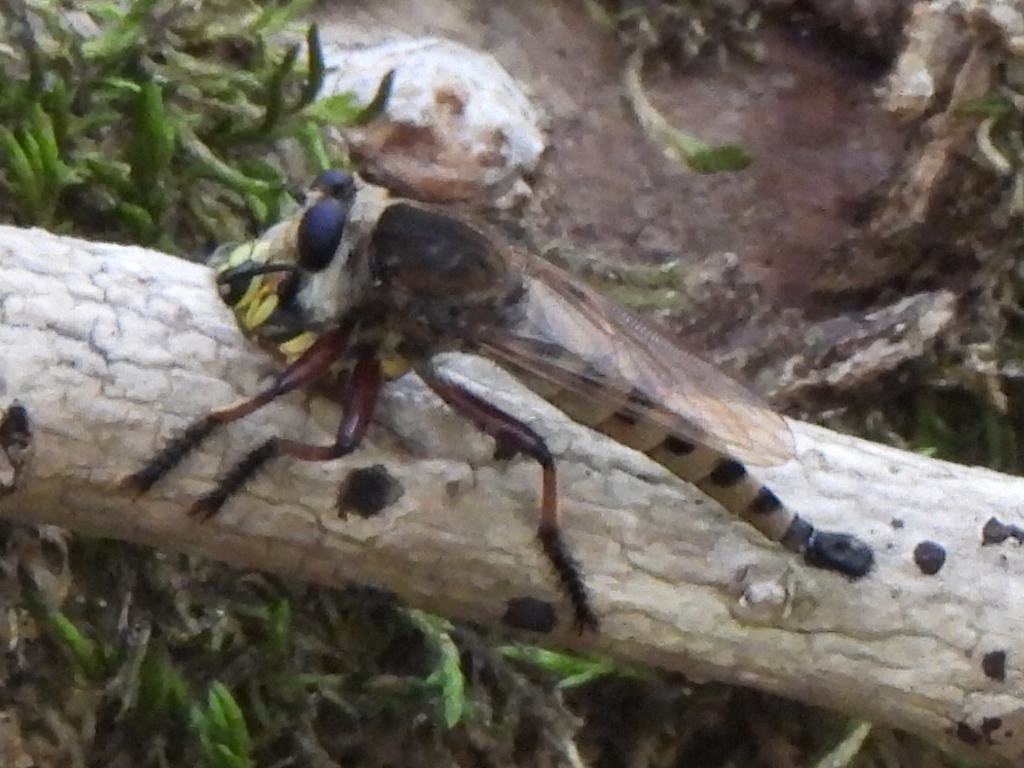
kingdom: Animalia
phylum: Arthropoda
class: Insecta
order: Diptera
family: Asilidae
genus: Promachus
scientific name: Promachus hinei
